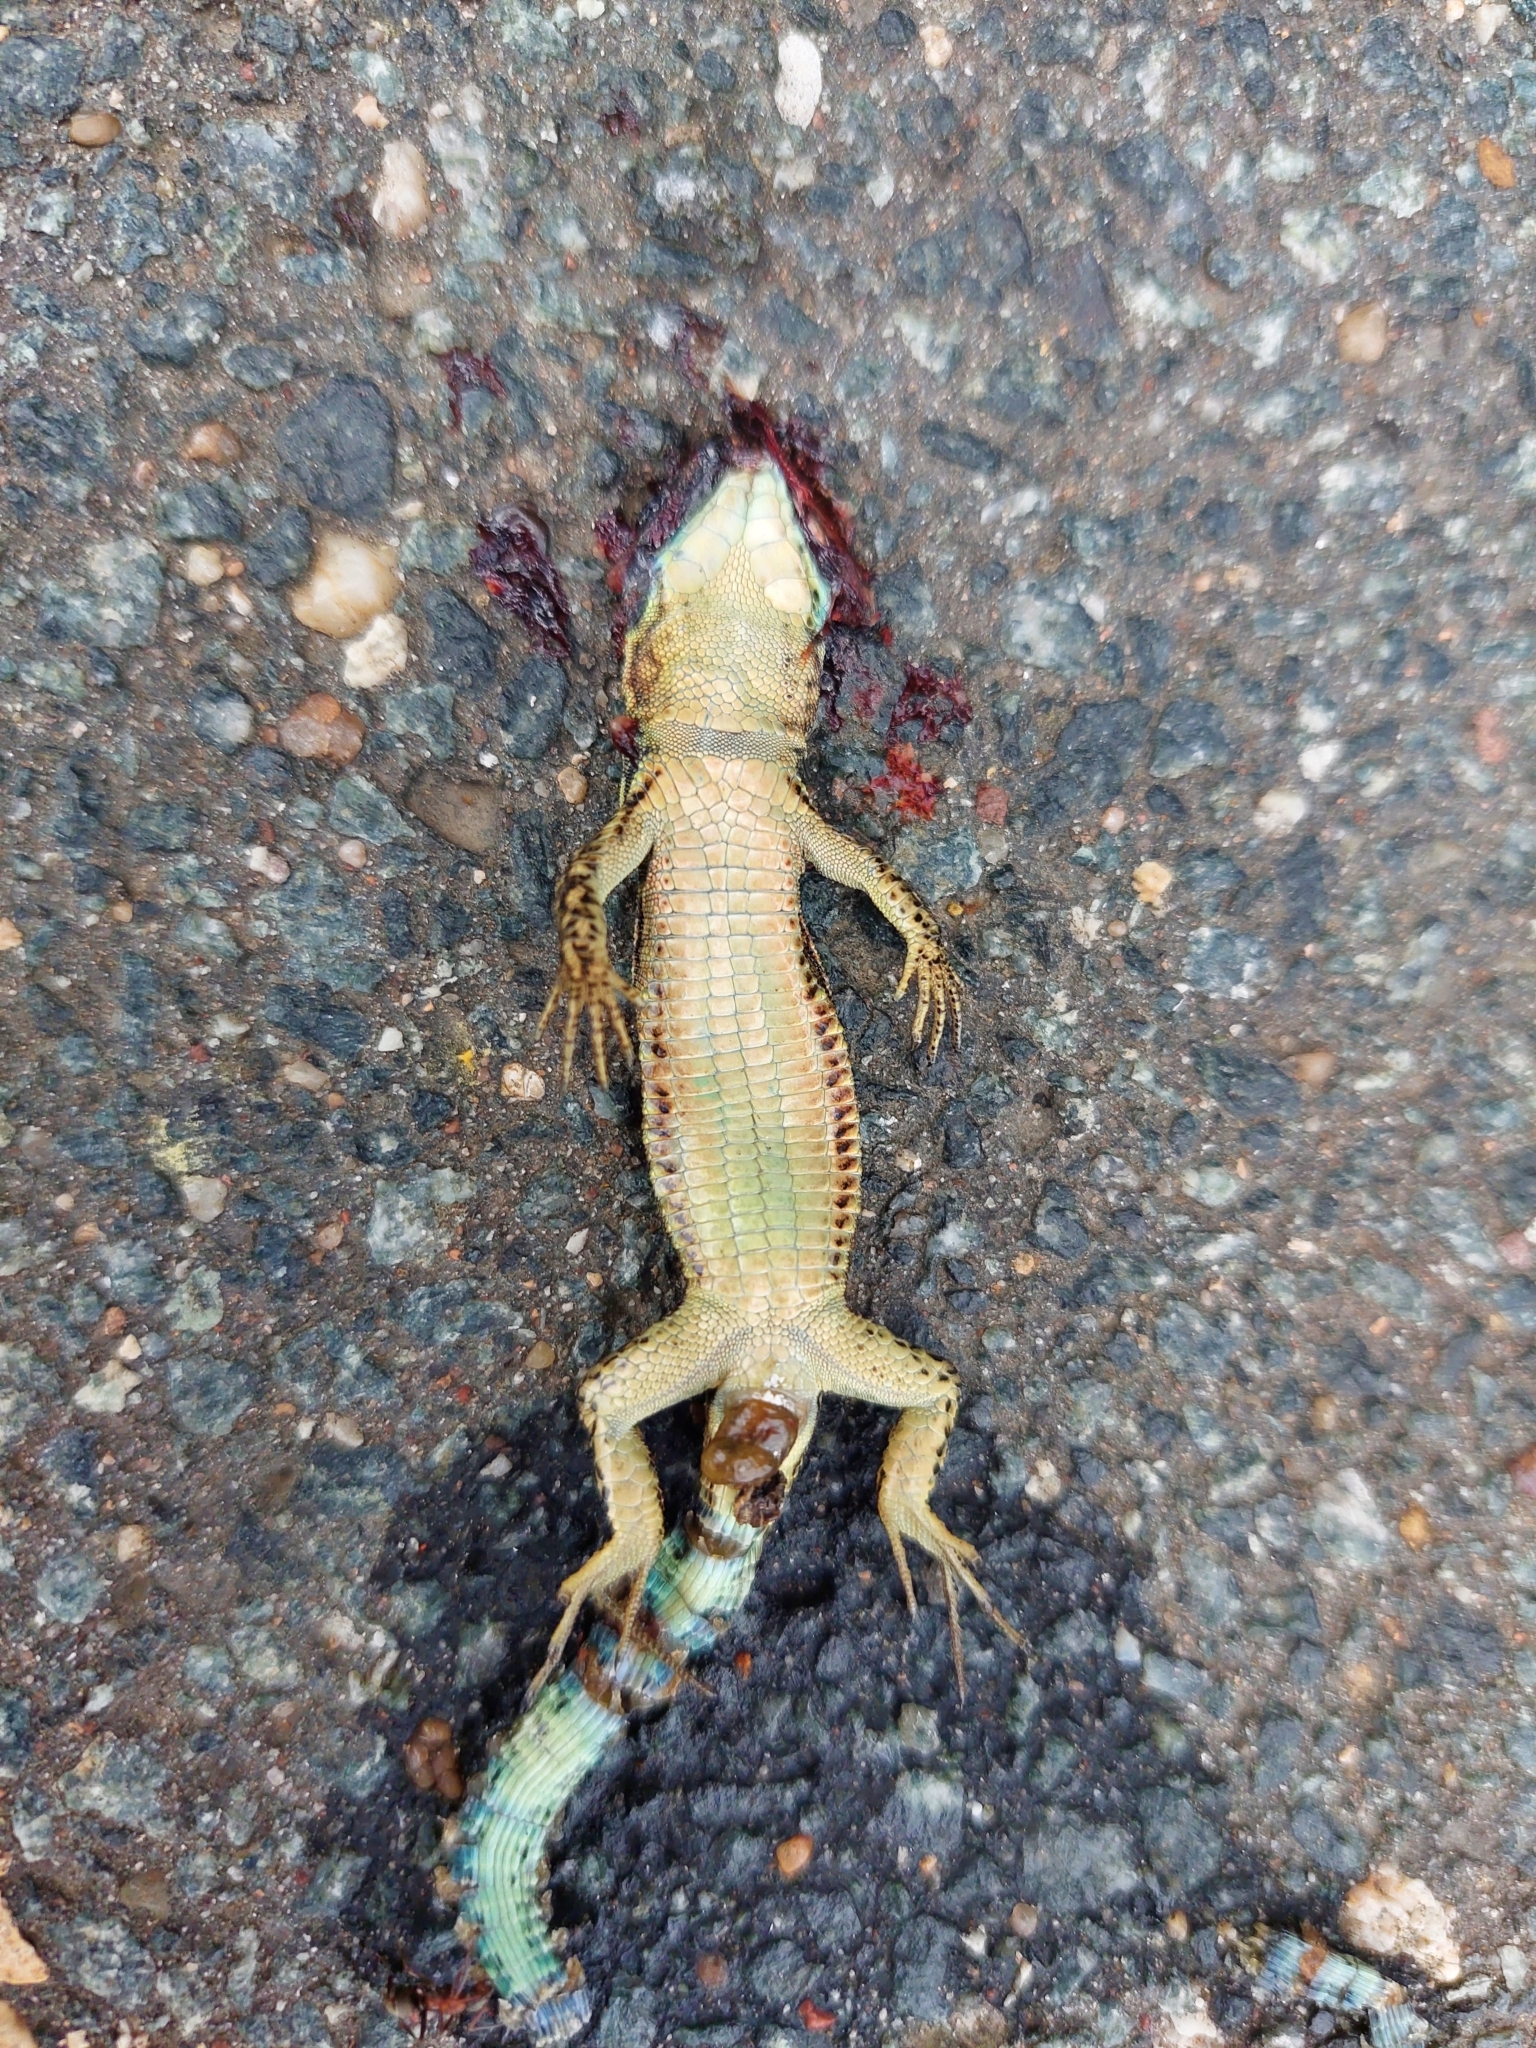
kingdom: Animalia
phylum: Chordata
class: Squamata
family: Lacertidae
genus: Podarcis
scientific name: Podarcis muralis
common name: Common wall lizard
